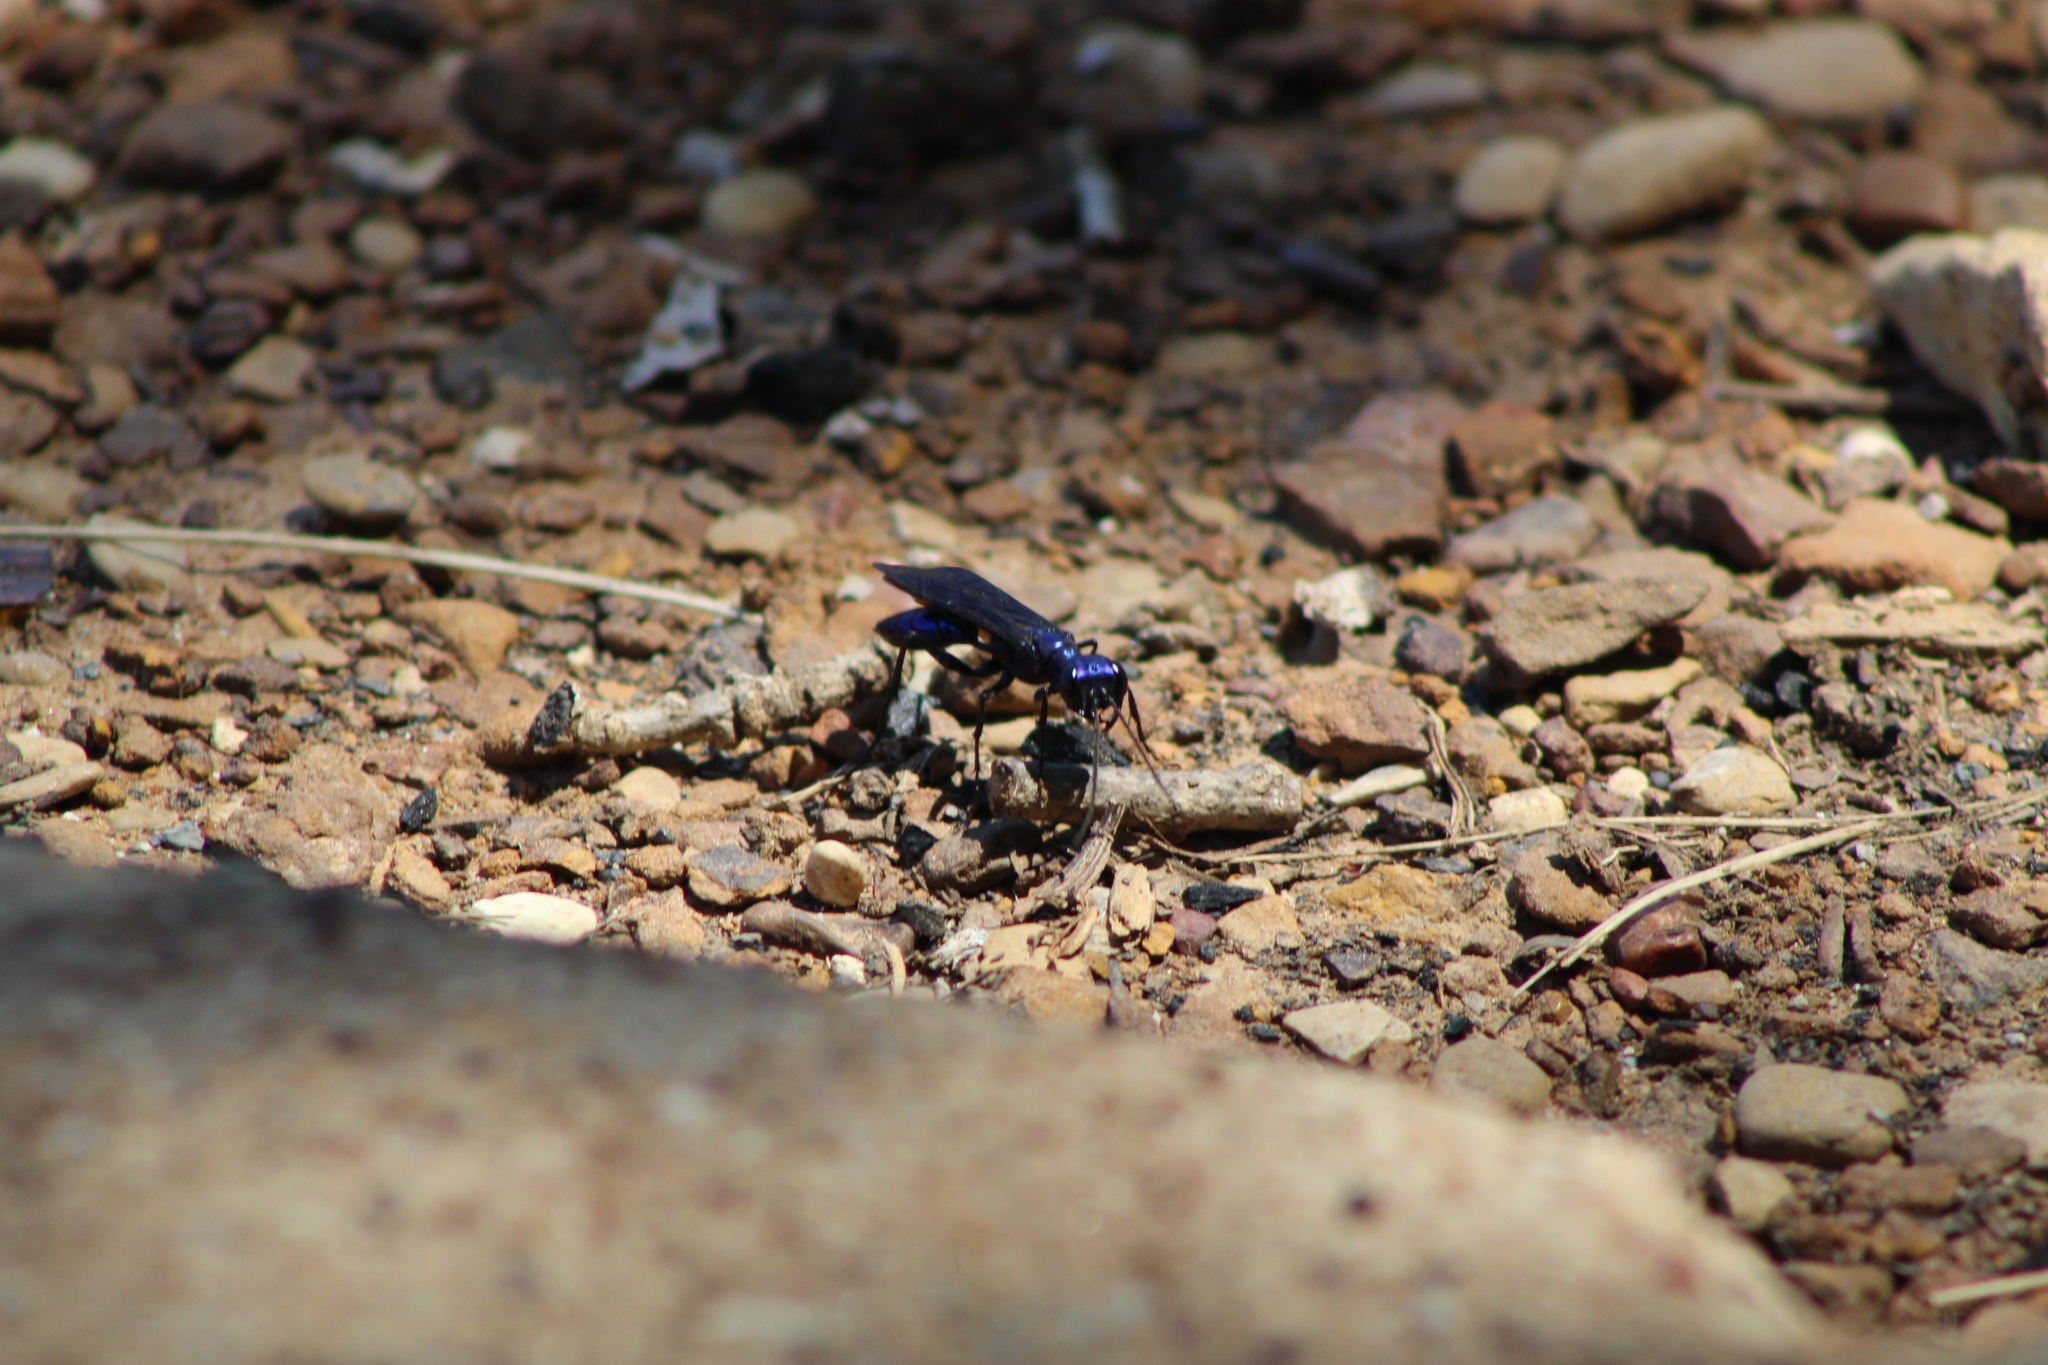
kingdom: Animalia
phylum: Arthropoda
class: Insecta
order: Hymenoptera
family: Sphecidae
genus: Chlorion
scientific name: Chlorion aerarium
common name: Steel-blue cricket hunter
